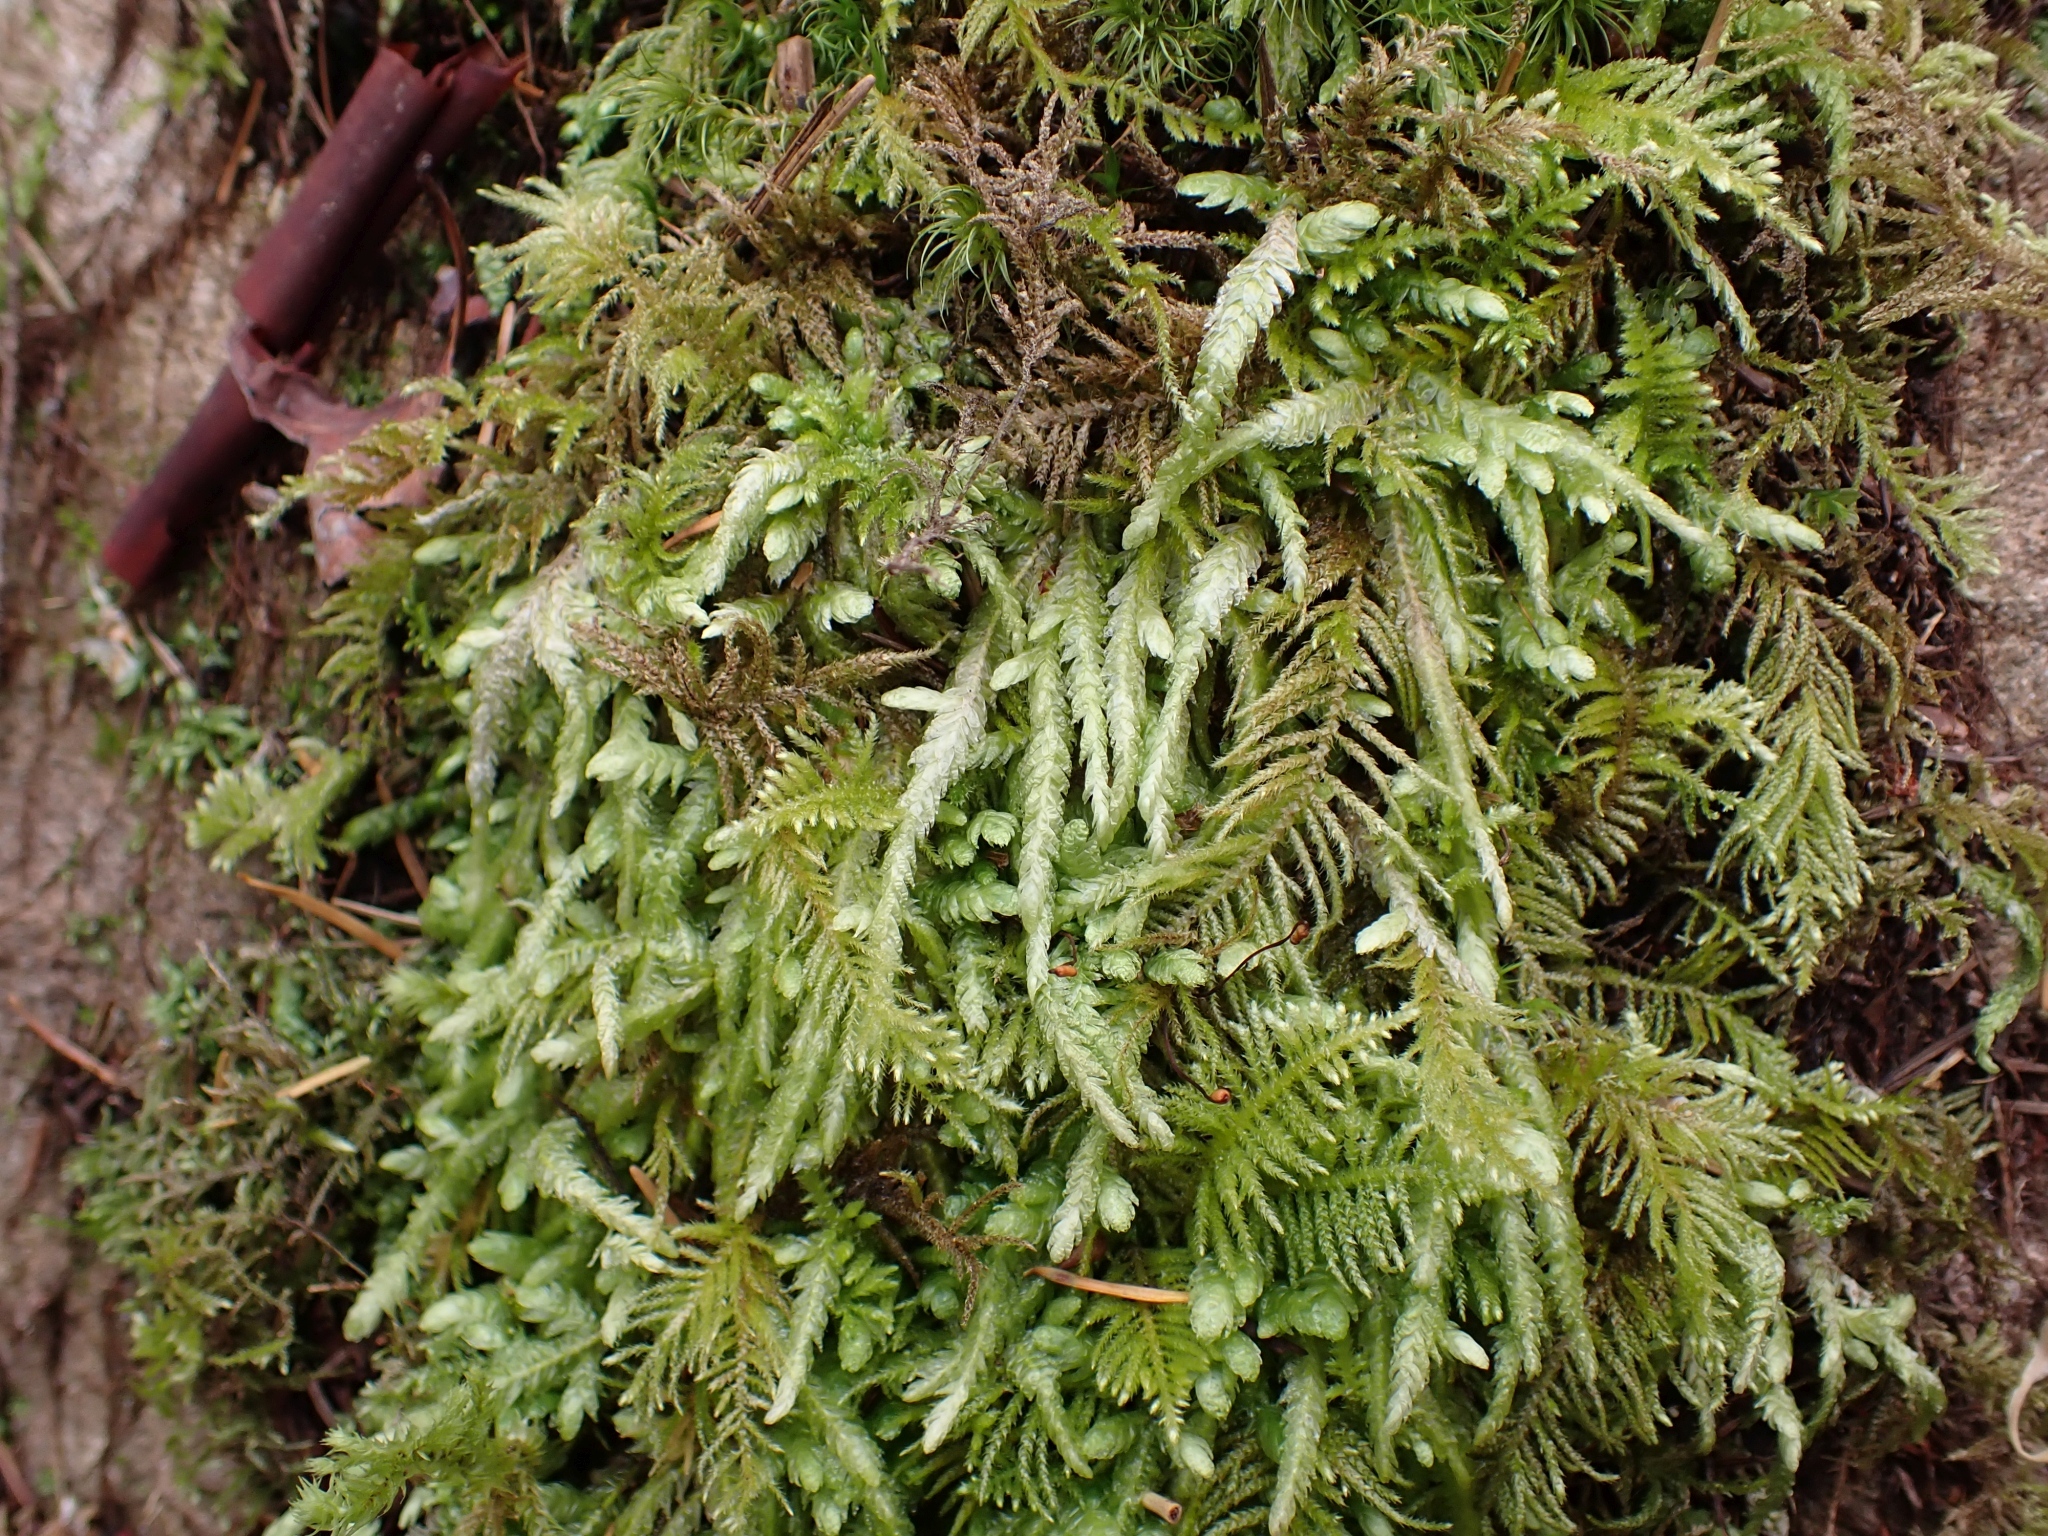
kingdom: Plantae
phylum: Bryophyta
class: Bryopsida
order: Hypnales
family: Plagiotheciaceae
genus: Plagiothecium
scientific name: Plagiothecium undulatum
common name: Waved silk-moss
